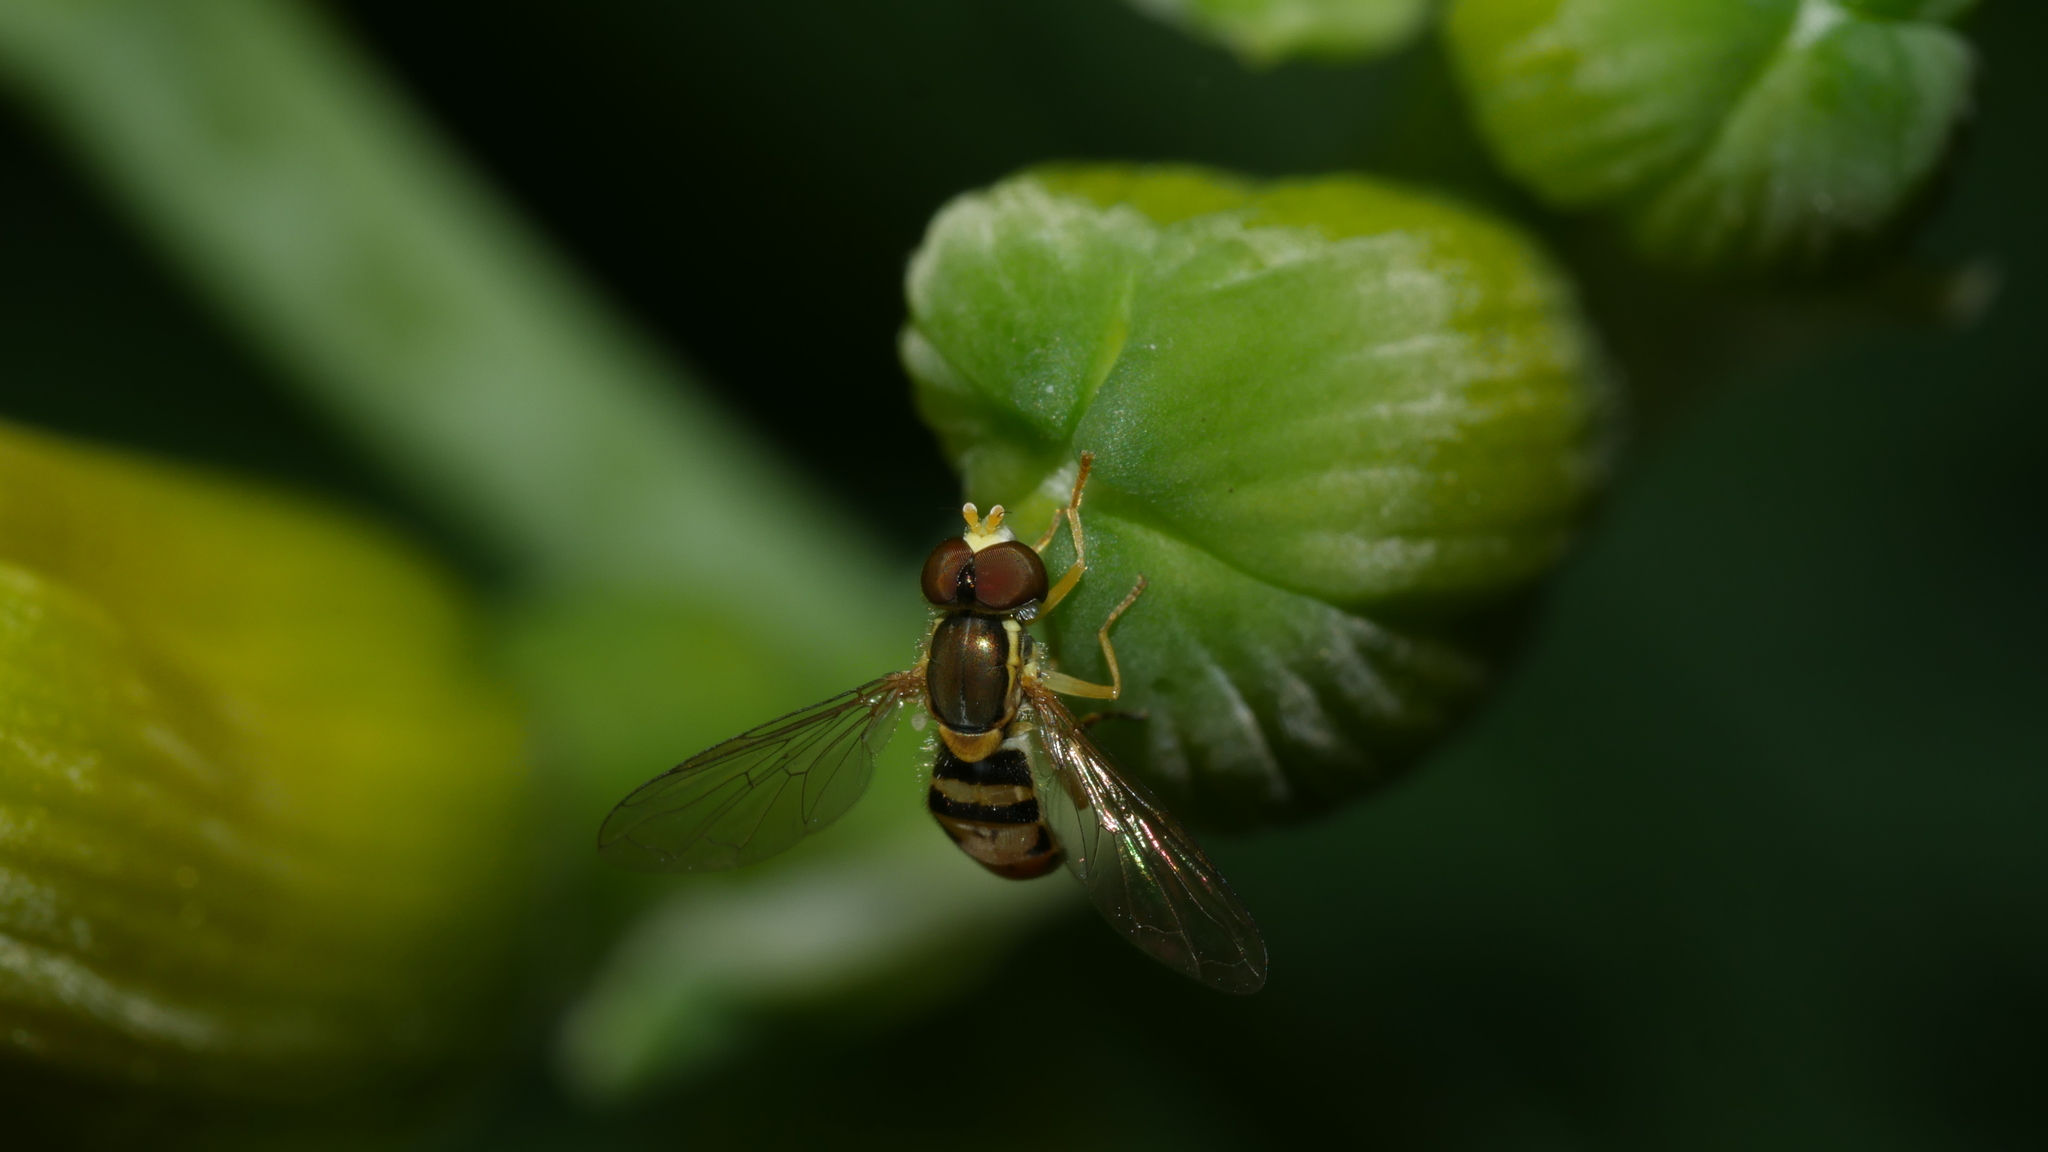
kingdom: Animalia
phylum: Arthropoda
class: Insecta
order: Diptera
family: Syrphidae
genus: Toxomerus
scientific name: Toxomerus marginatus
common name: Syrphid fly
